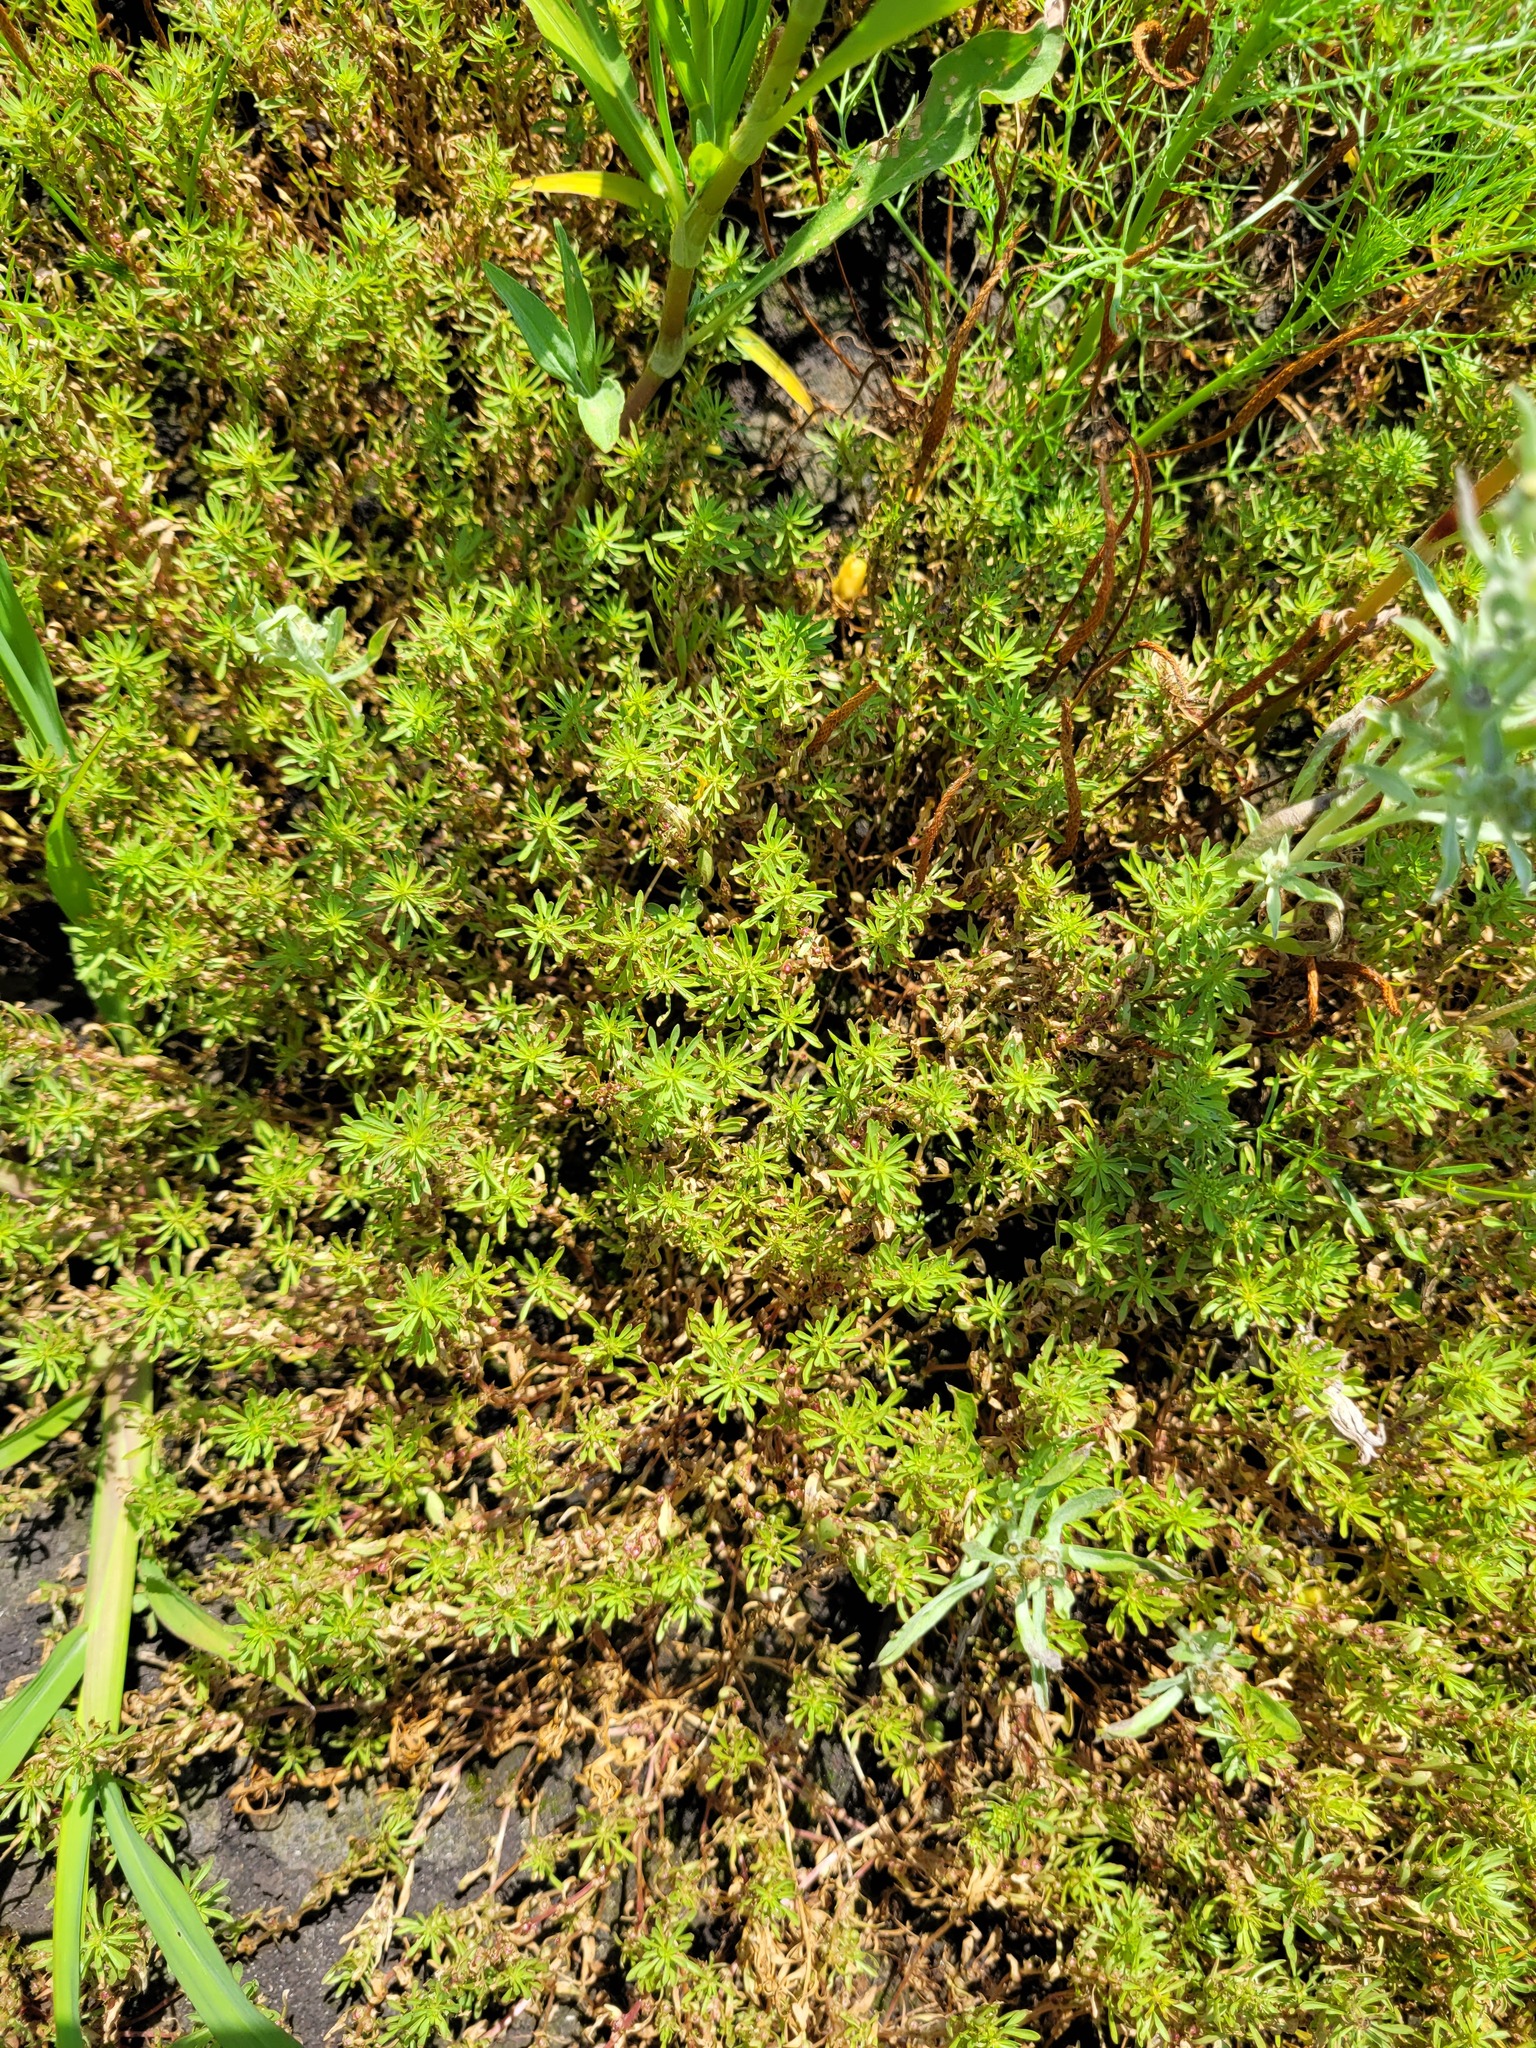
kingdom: Plantae
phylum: Tracheophyta
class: Magnoliopsida
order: Myrtales
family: Lythraceae
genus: Lythrum
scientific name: Lythrum volgense
